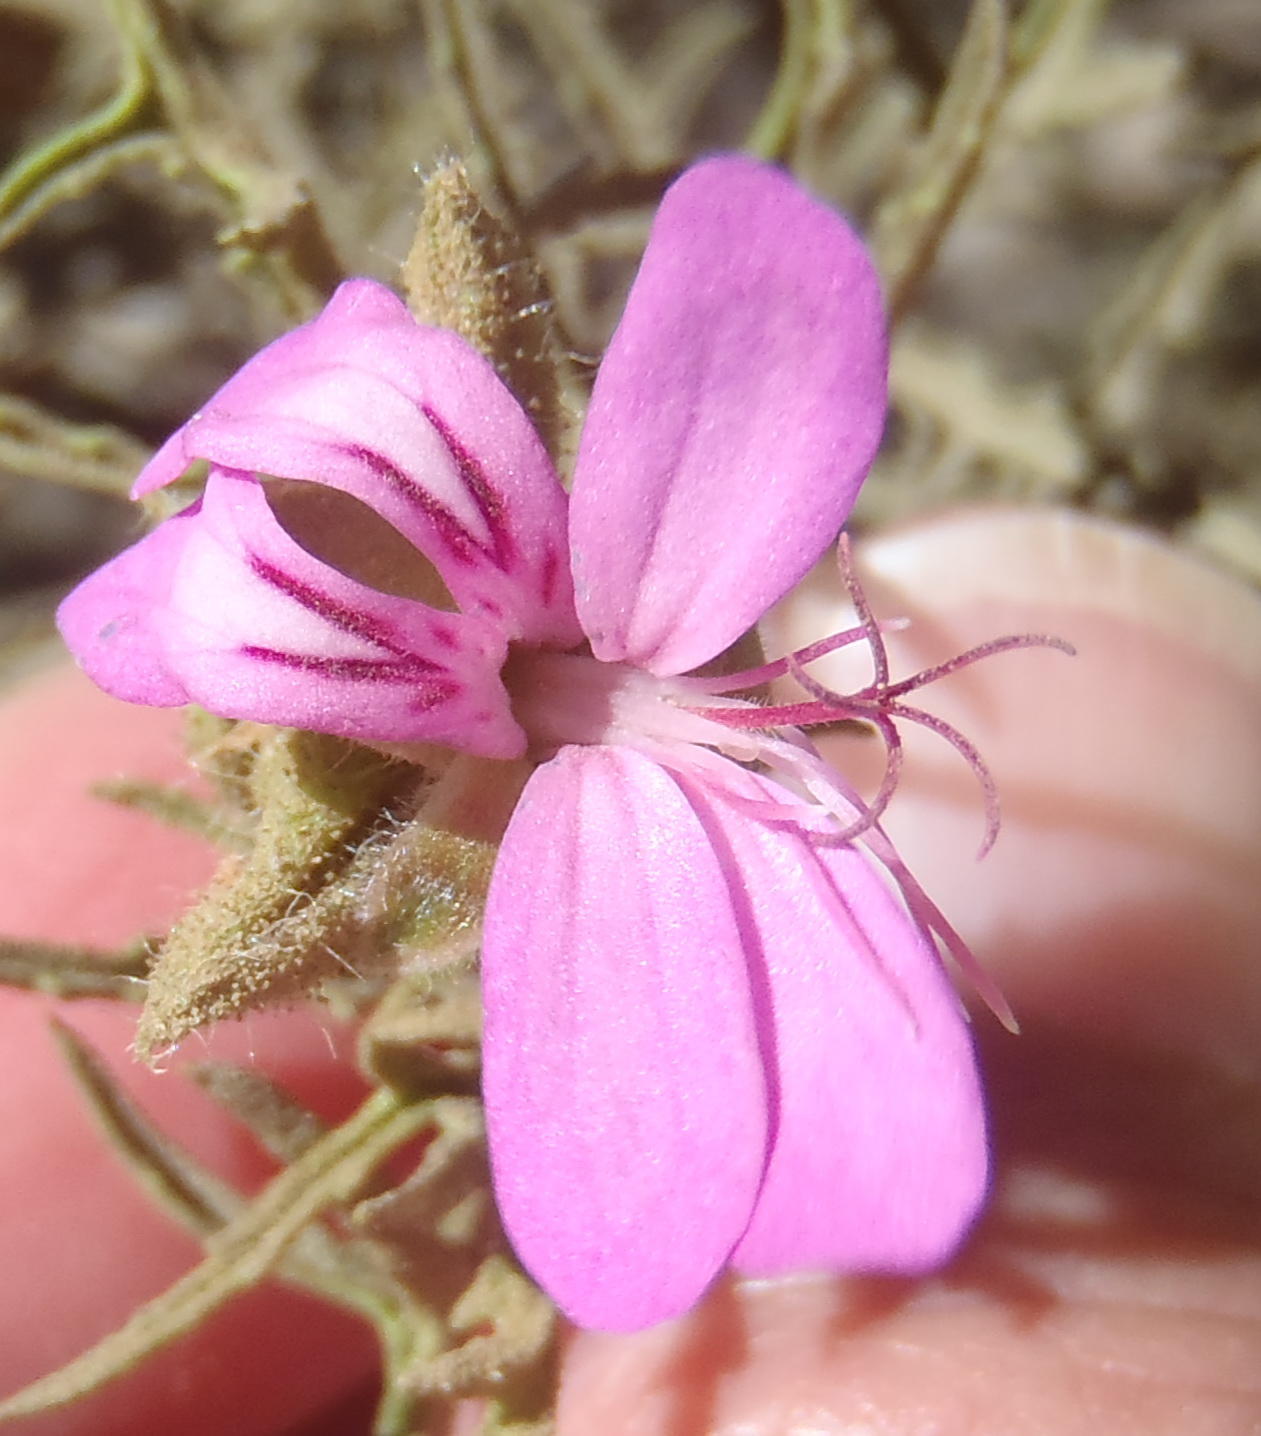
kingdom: Plantae
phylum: Tracheophyta
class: Magnoliopsida
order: Geraniales
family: Geraniaceae
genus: Pelargonium
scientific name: Pelargonium glutinosum
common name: Pheasant-foot geranium
